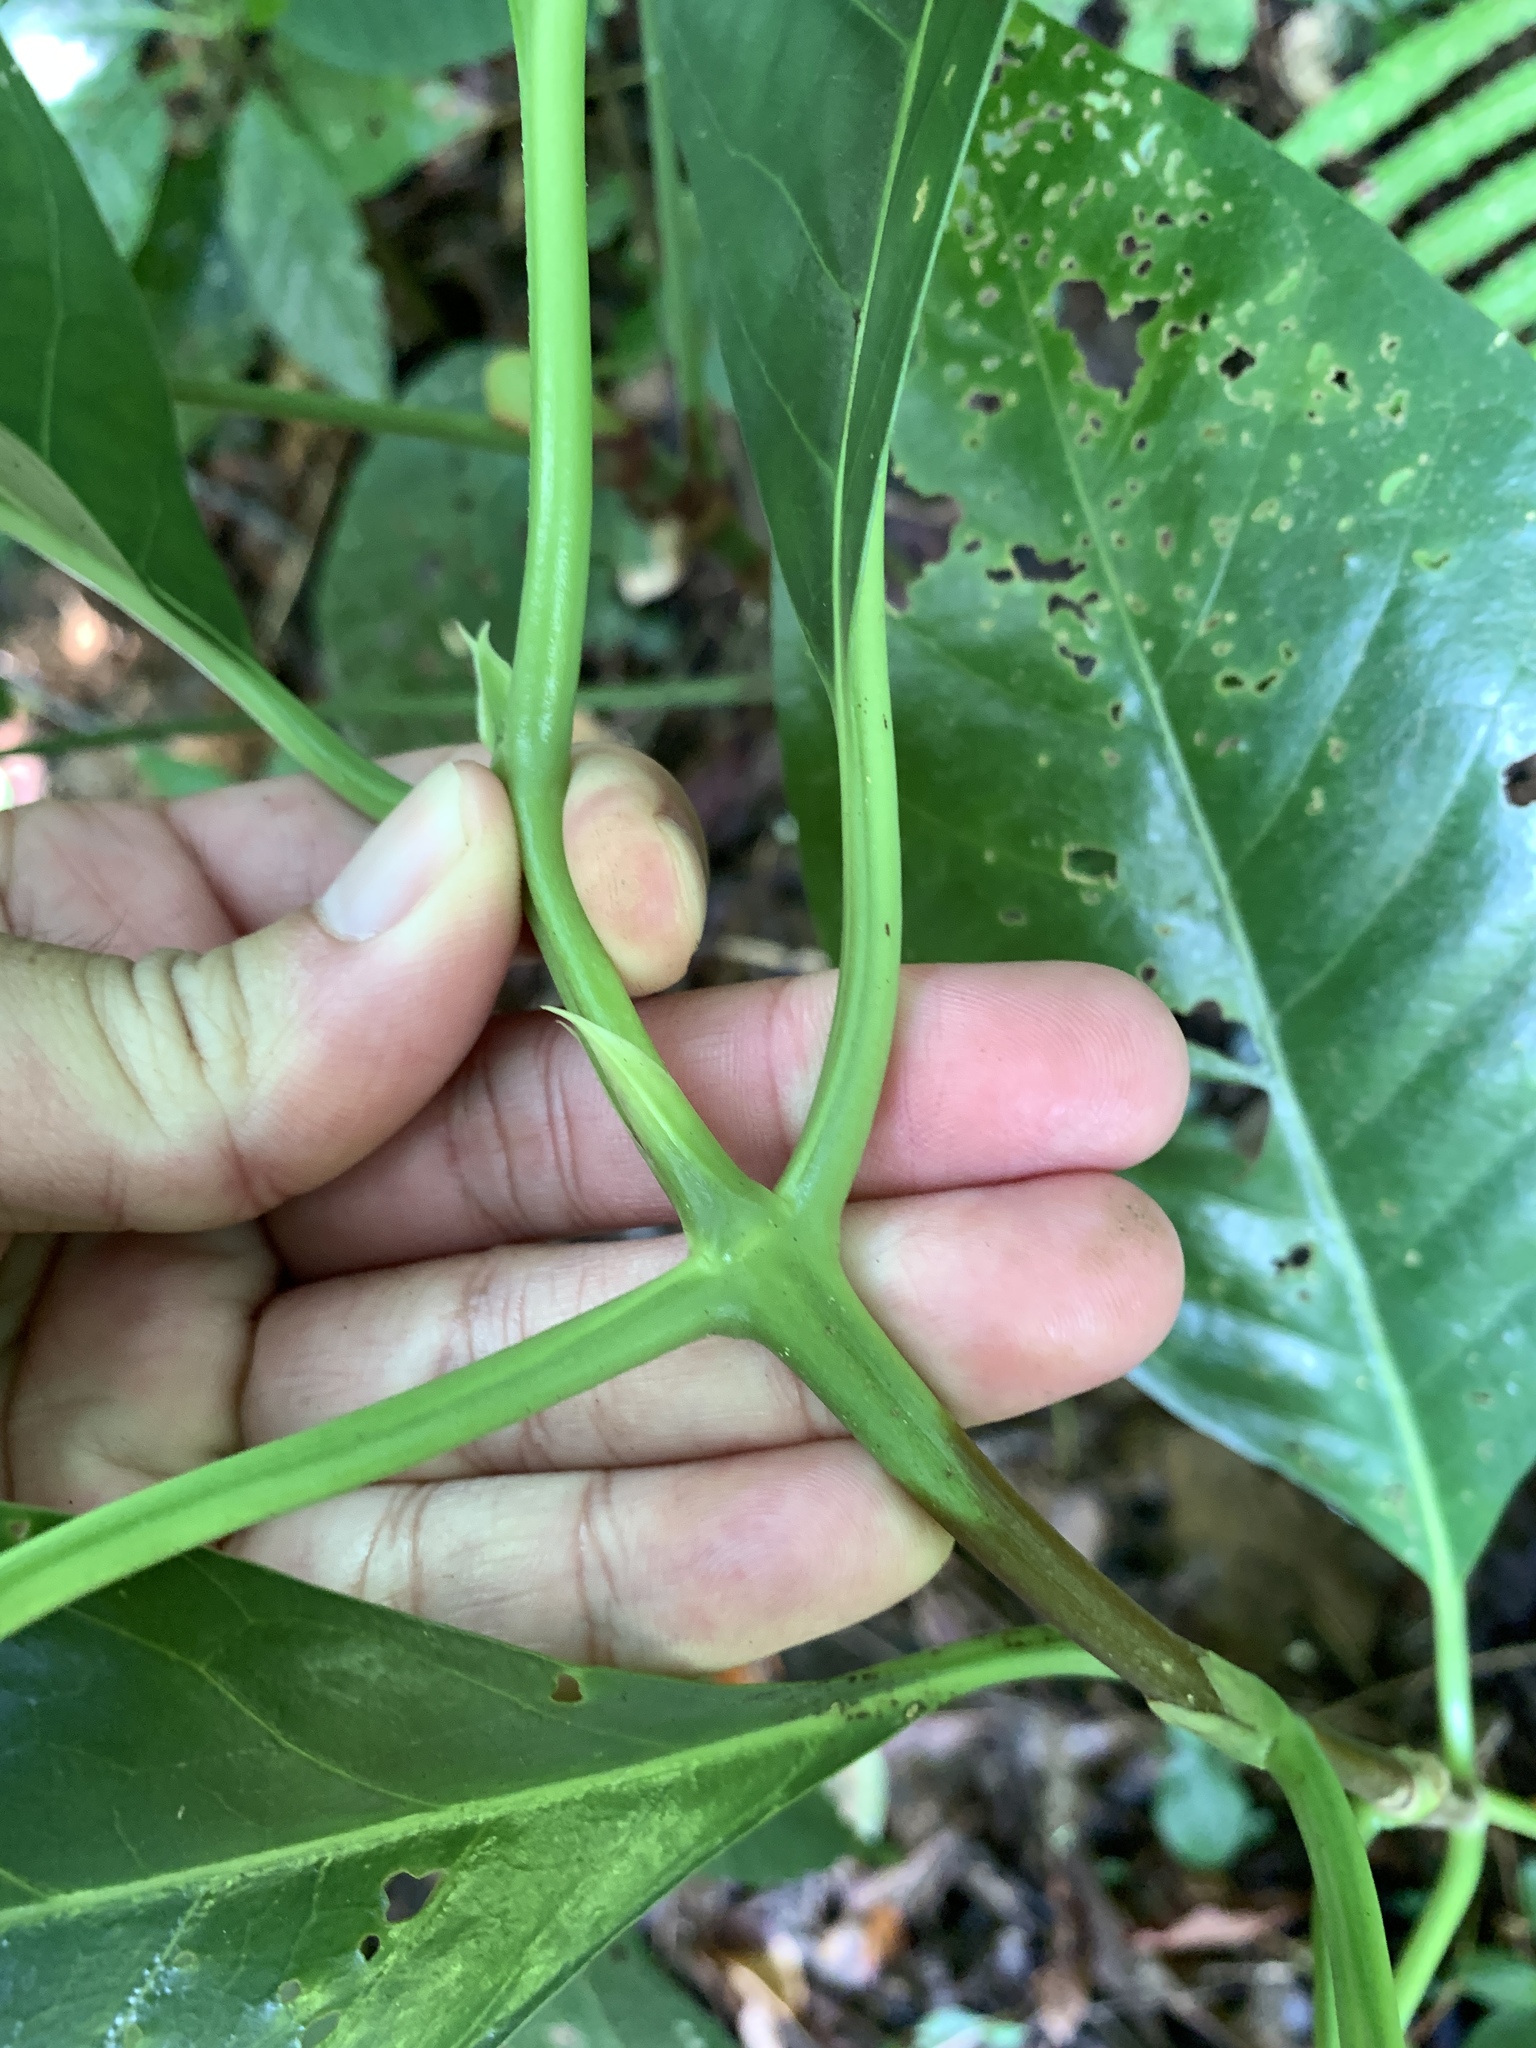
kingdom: Plantae
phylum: Tracheophyta
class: Magnoliopsida
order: Gentianales
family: Rubiaceae
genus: Tarenna
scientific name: Tarenna asiatica
